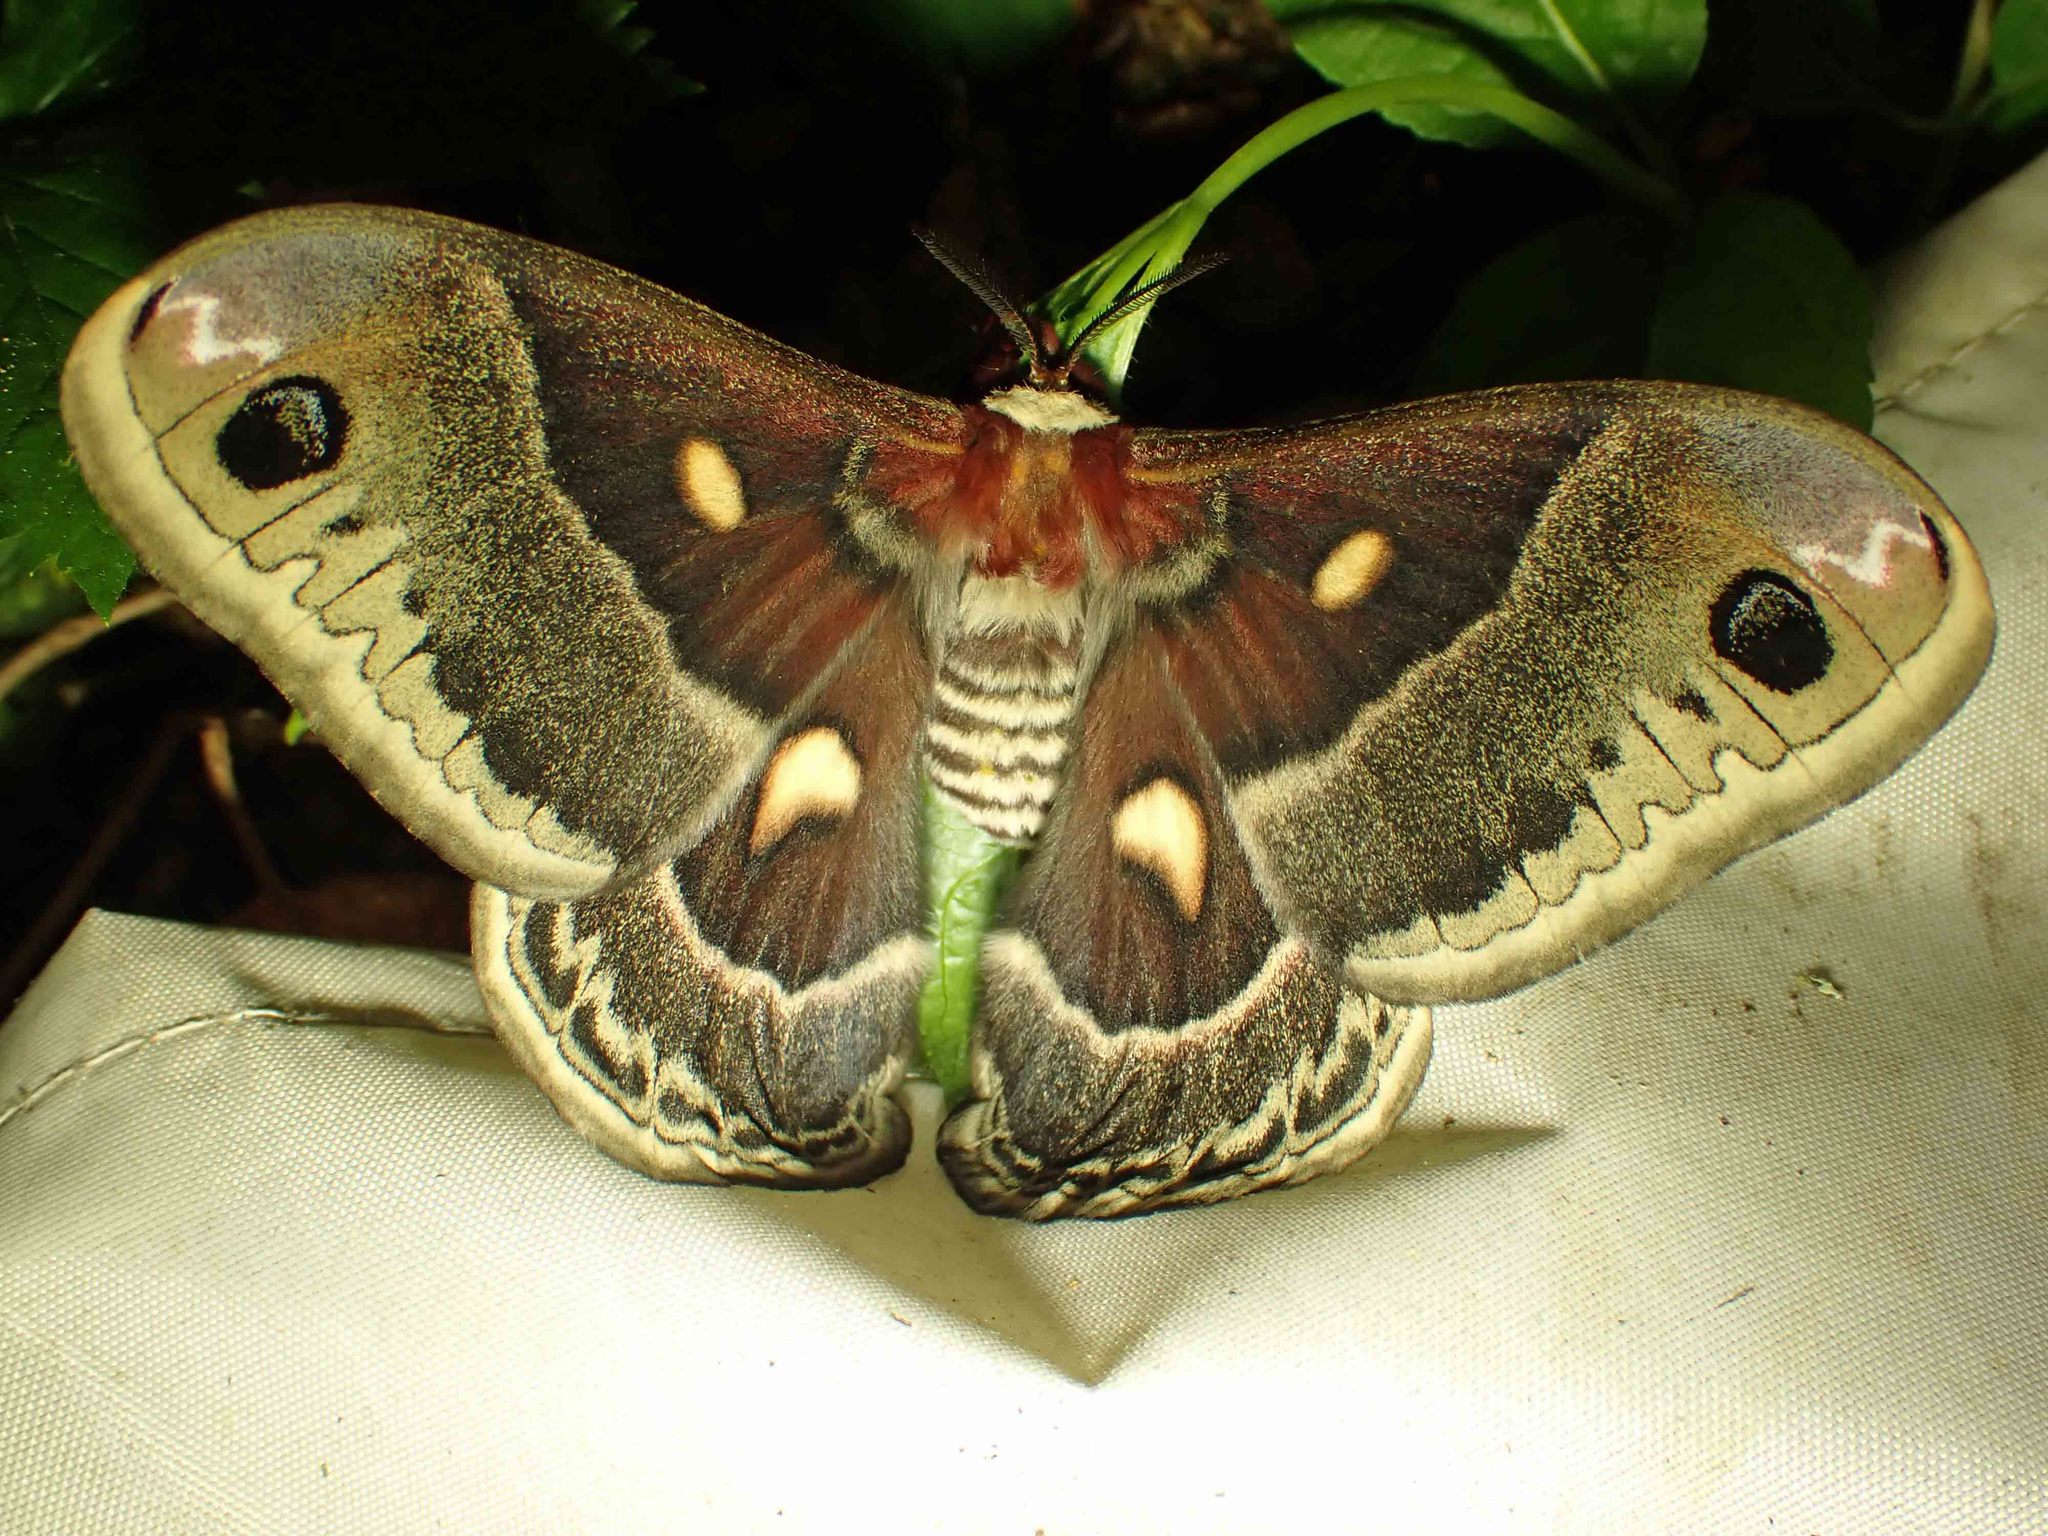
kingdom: Animalia
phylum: Arthropoda
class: Insecta
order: Lepidoptera
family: Saturniidae
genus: Hyalophora
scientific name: Hyalophora columbia
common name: Columbia silkmoth
